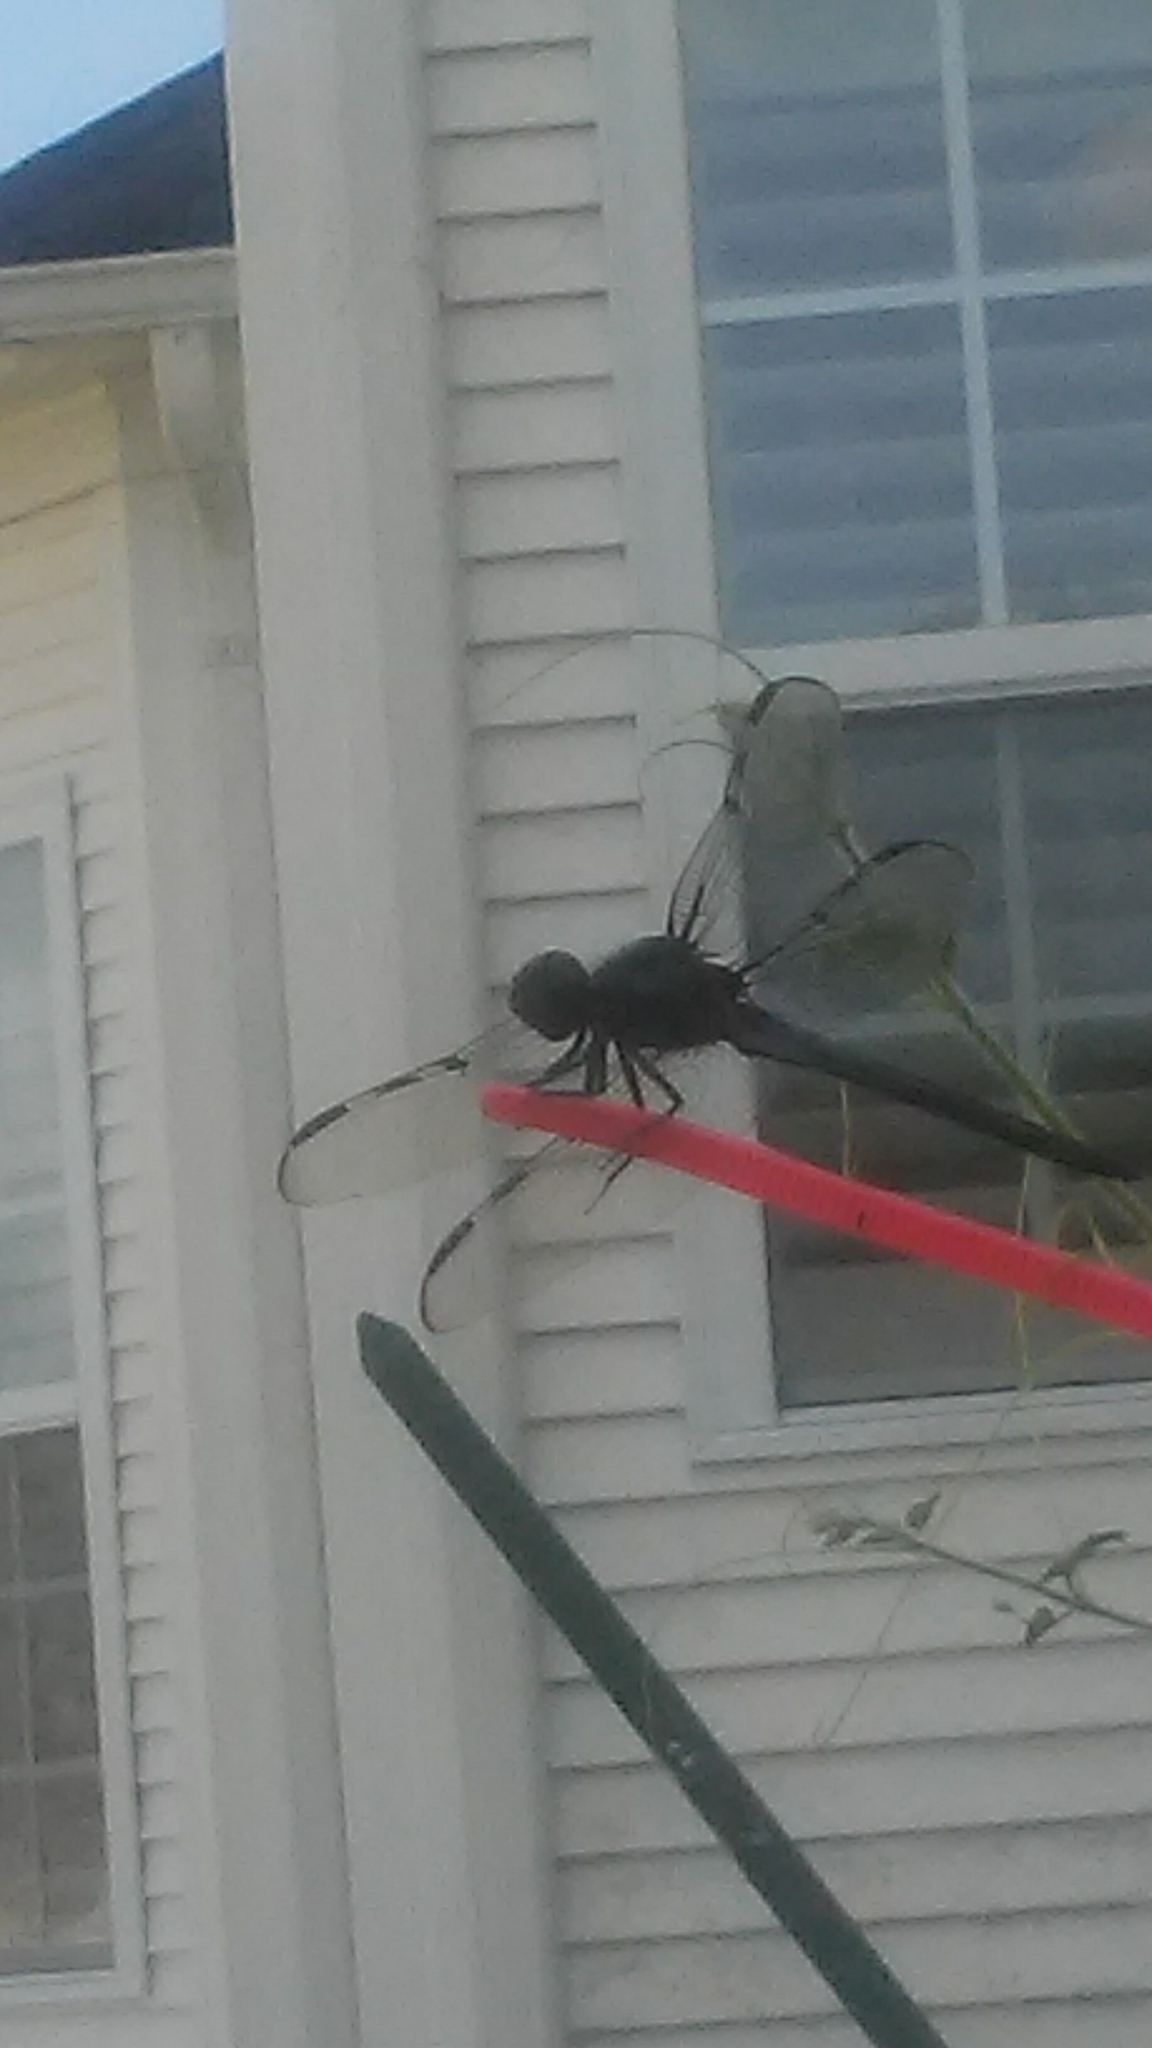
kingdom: Animalia
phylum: Arthropoda
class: Insecta
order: Odonata
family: Libellulidae
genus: Libellula
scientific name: Libellula axilena
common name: Bar-winged skimmer
